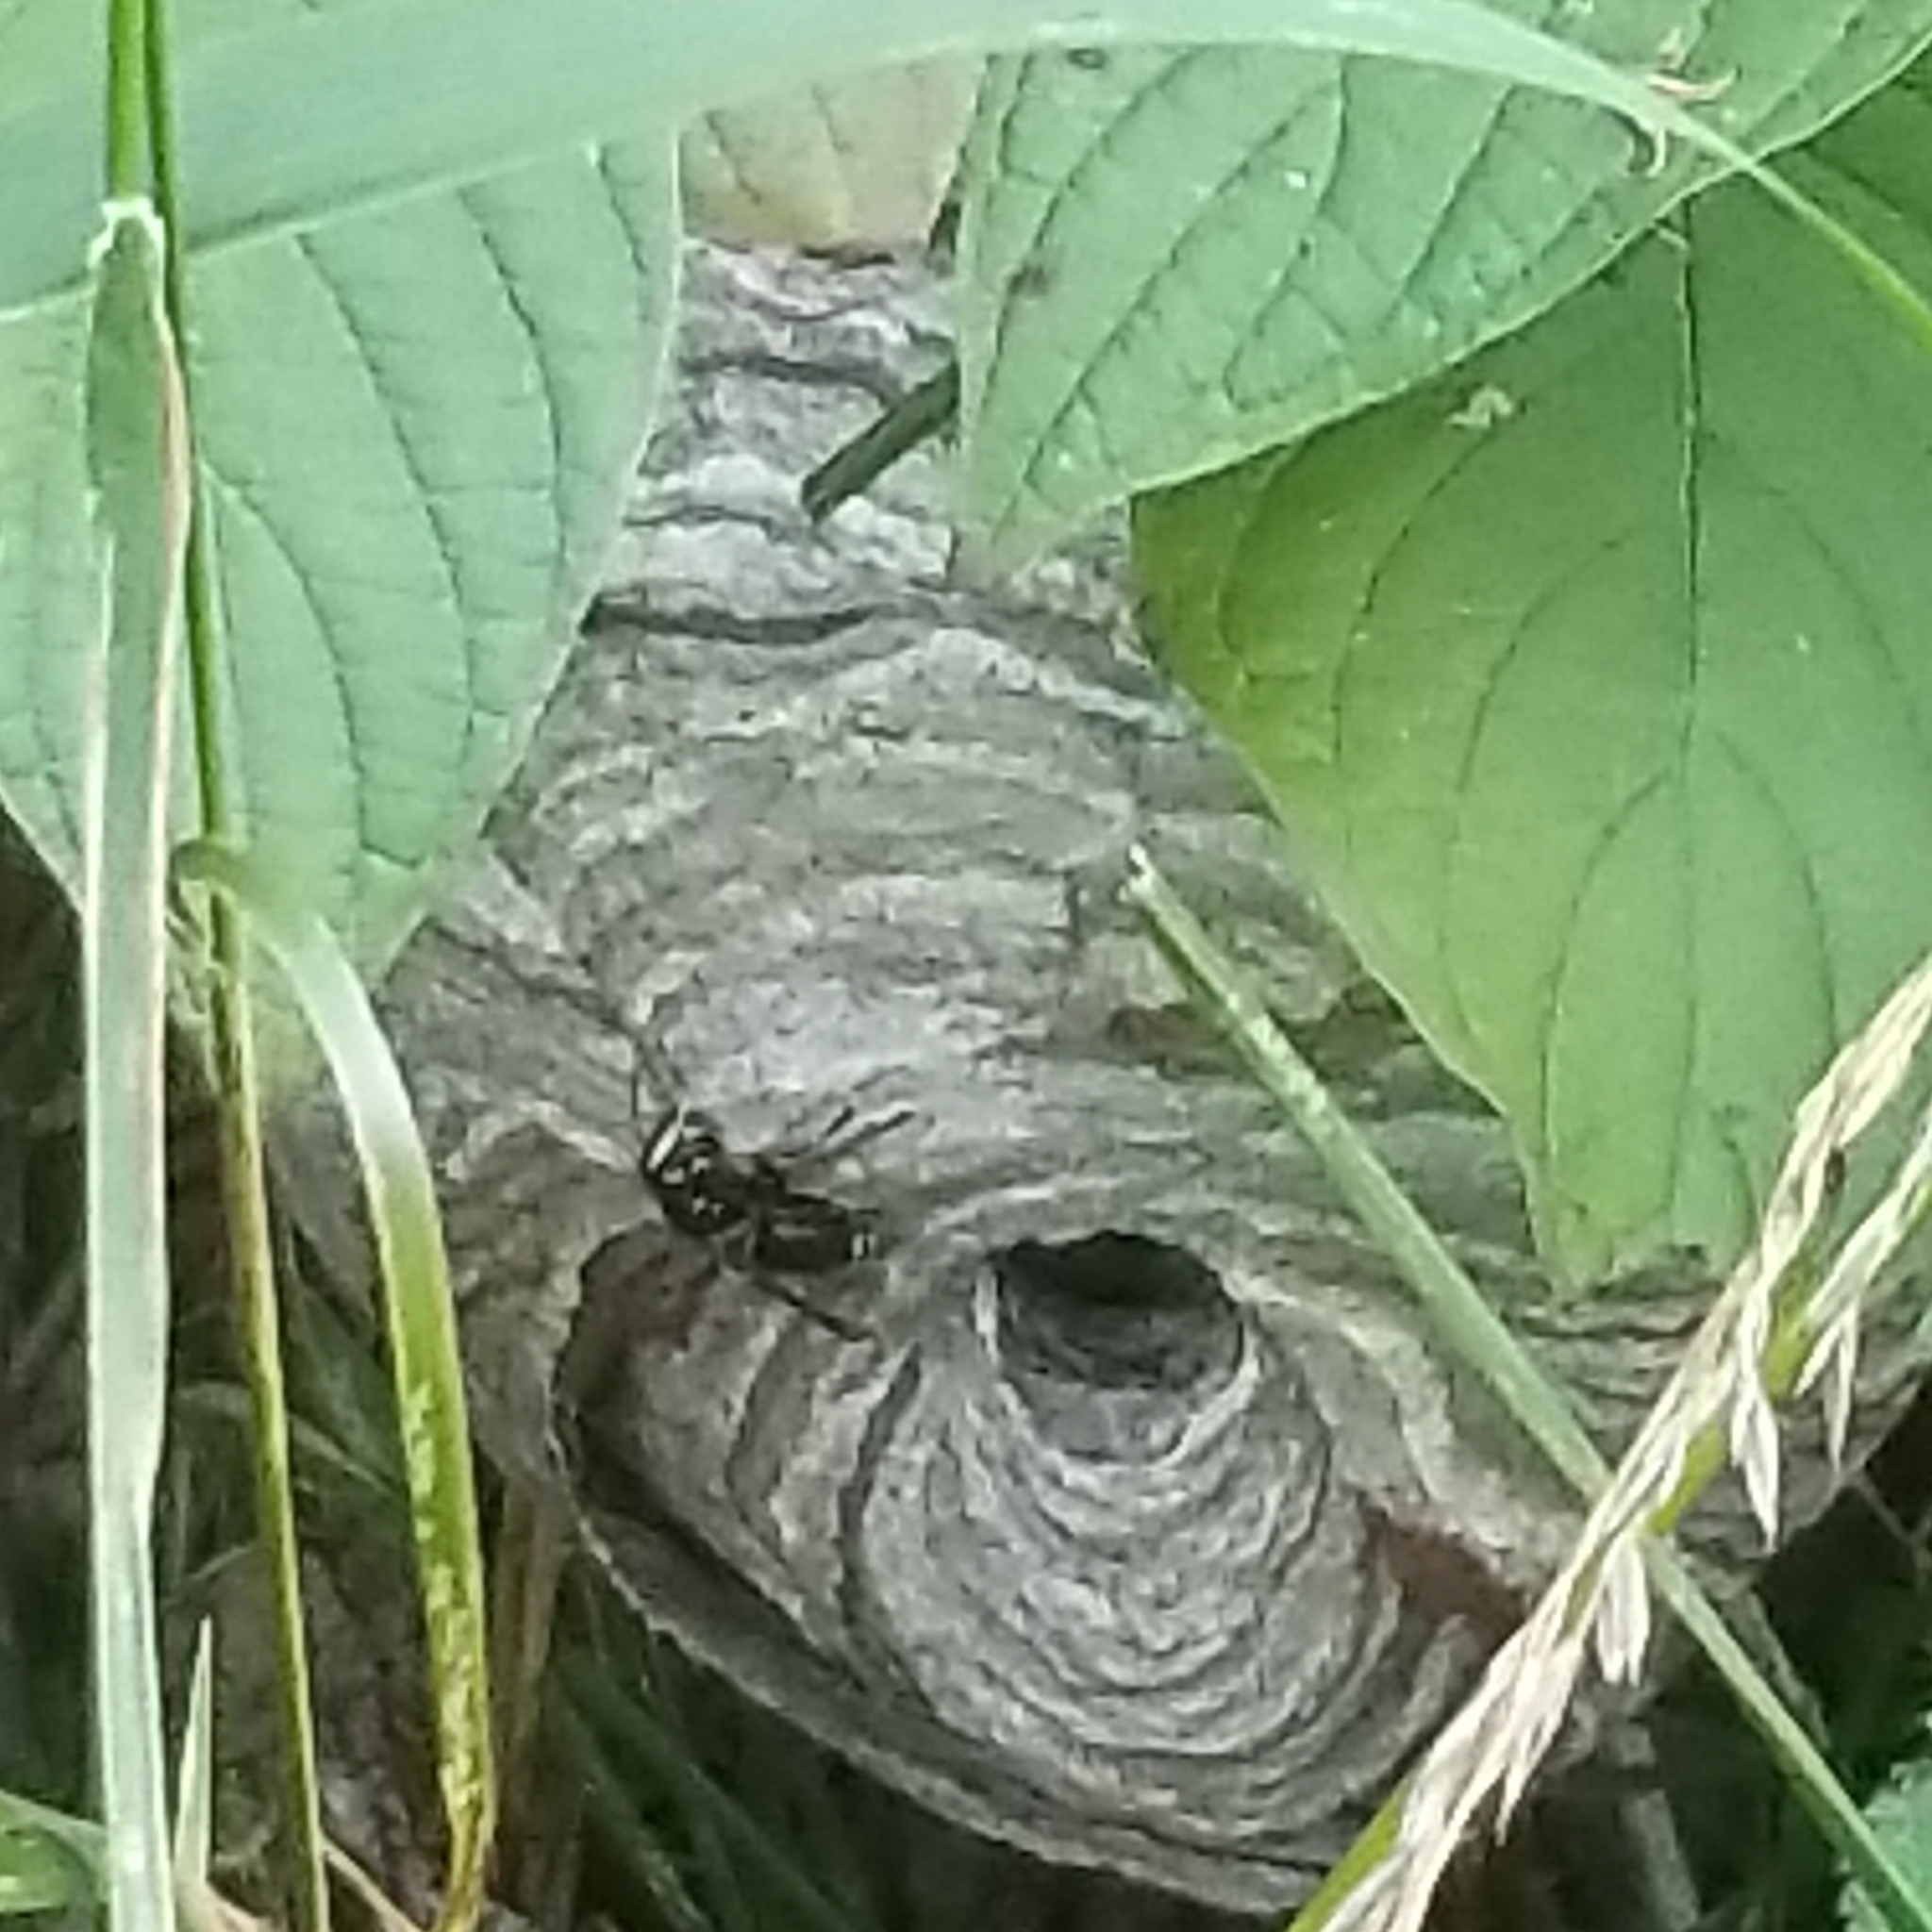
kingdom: Animalia
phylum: Arthropoda
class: Insecta
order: Hymenoptera
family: Vespidae
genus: Dolichovespula
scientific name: Dolichovespula maculata
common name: Bald-faced hornet
